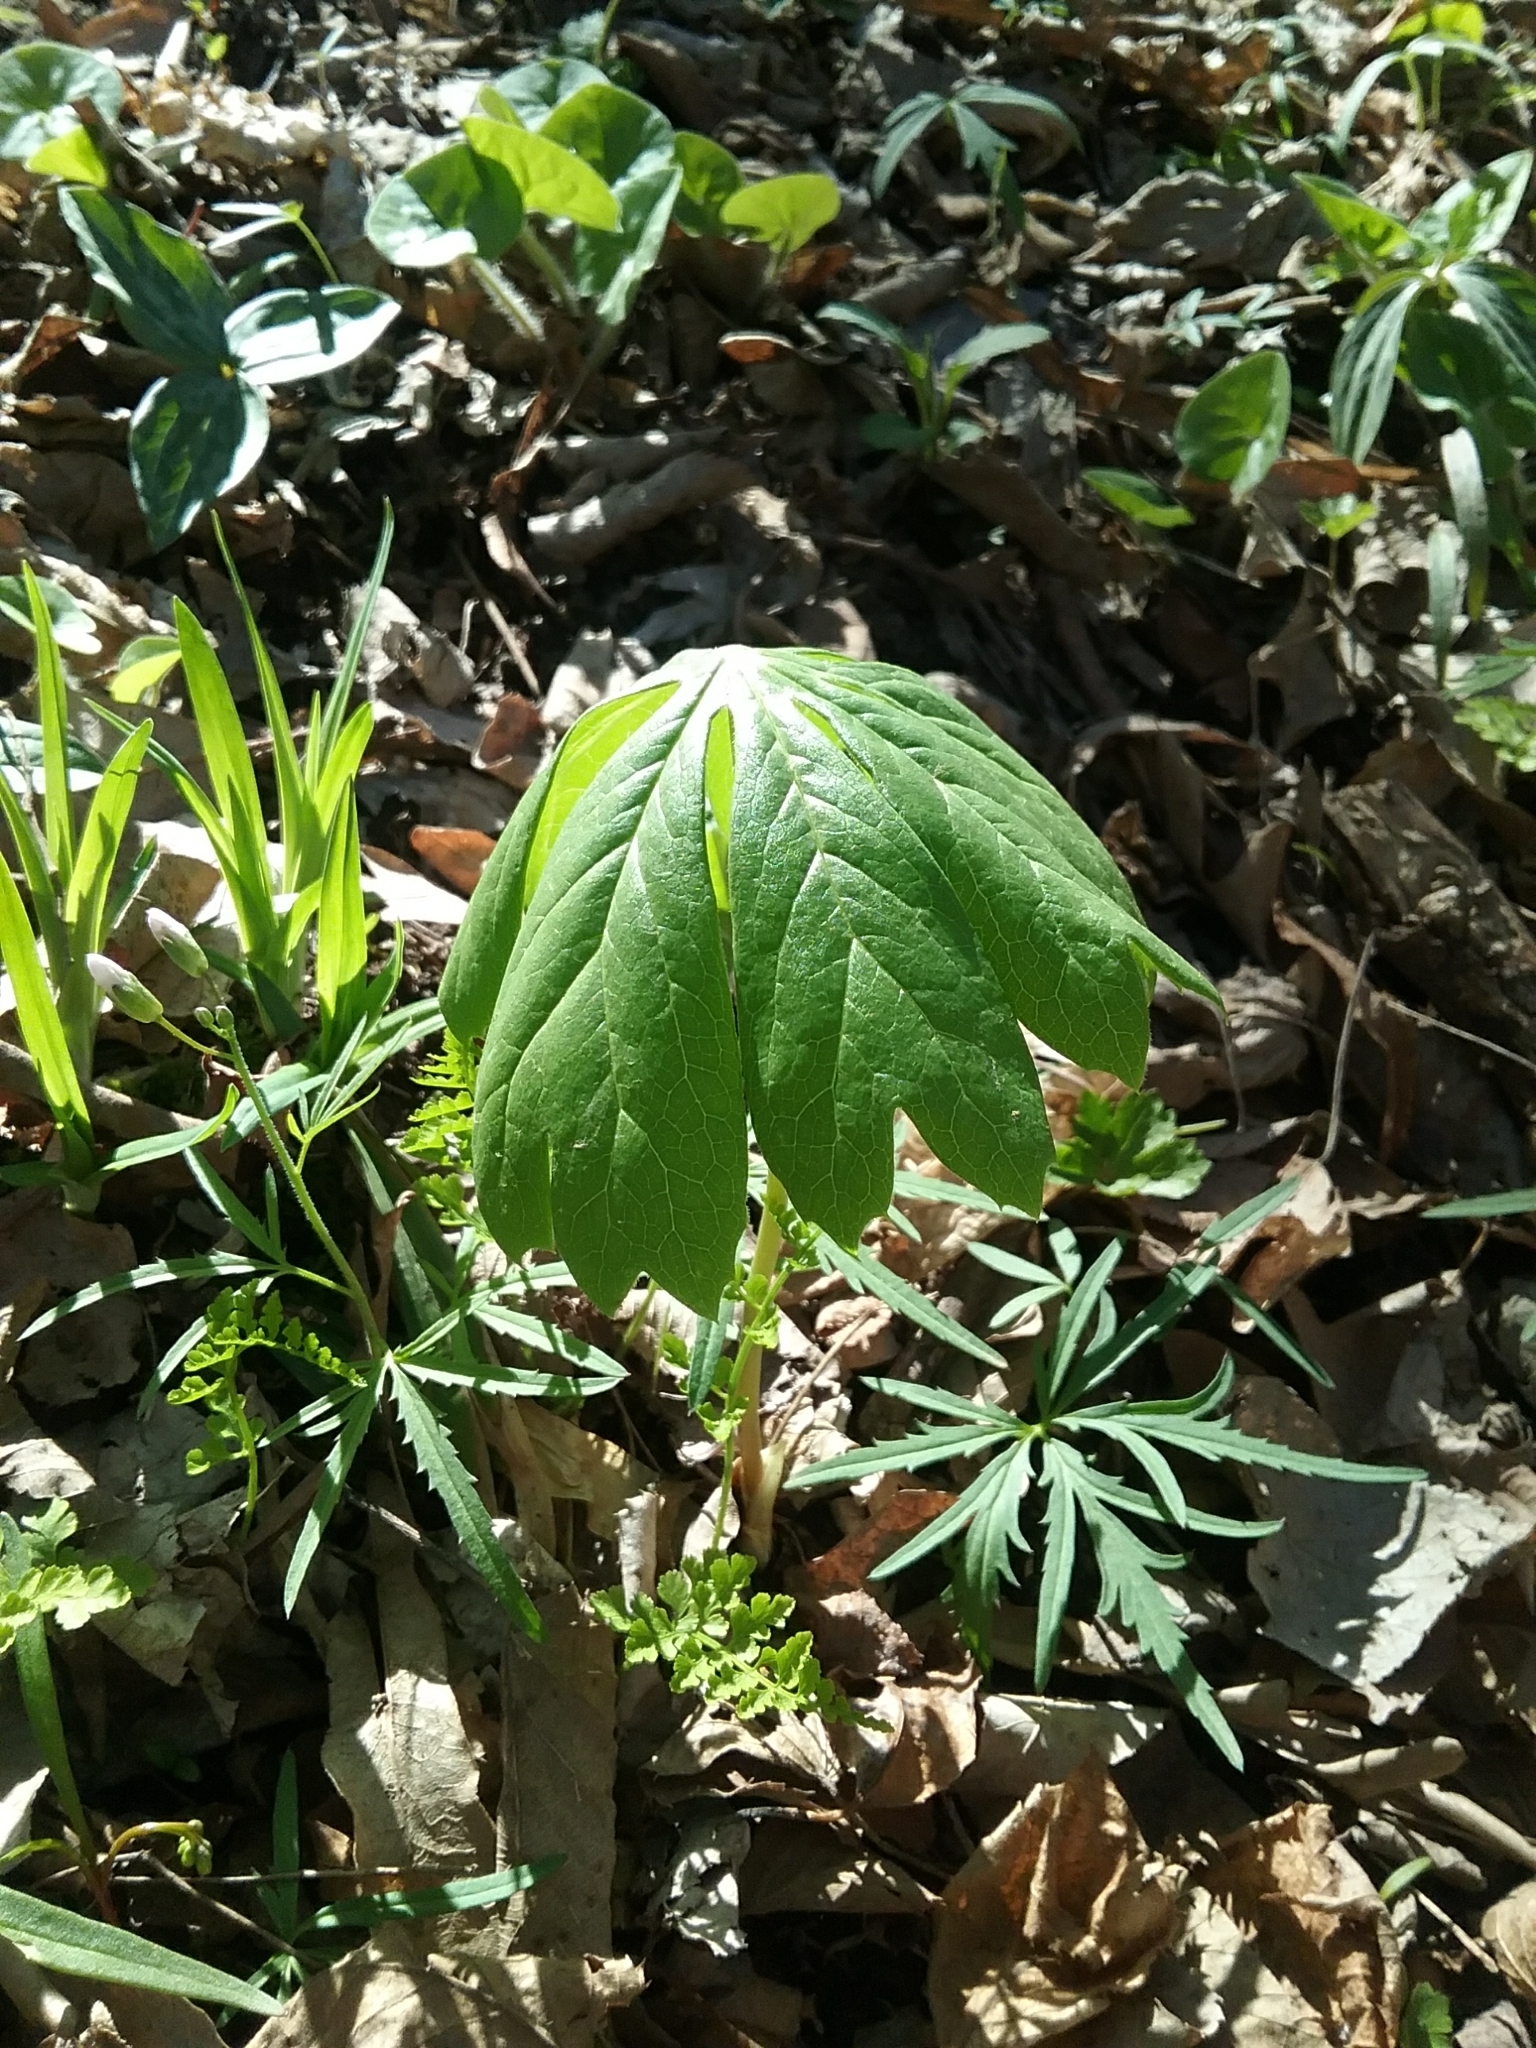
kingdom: Plantae
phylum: Tracheophyta
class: Magnoliopsida
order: Ranunculales
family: Berberidaceae
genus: Podophyllum
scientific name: Podophyllum peltatum
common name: Wild mandrake
